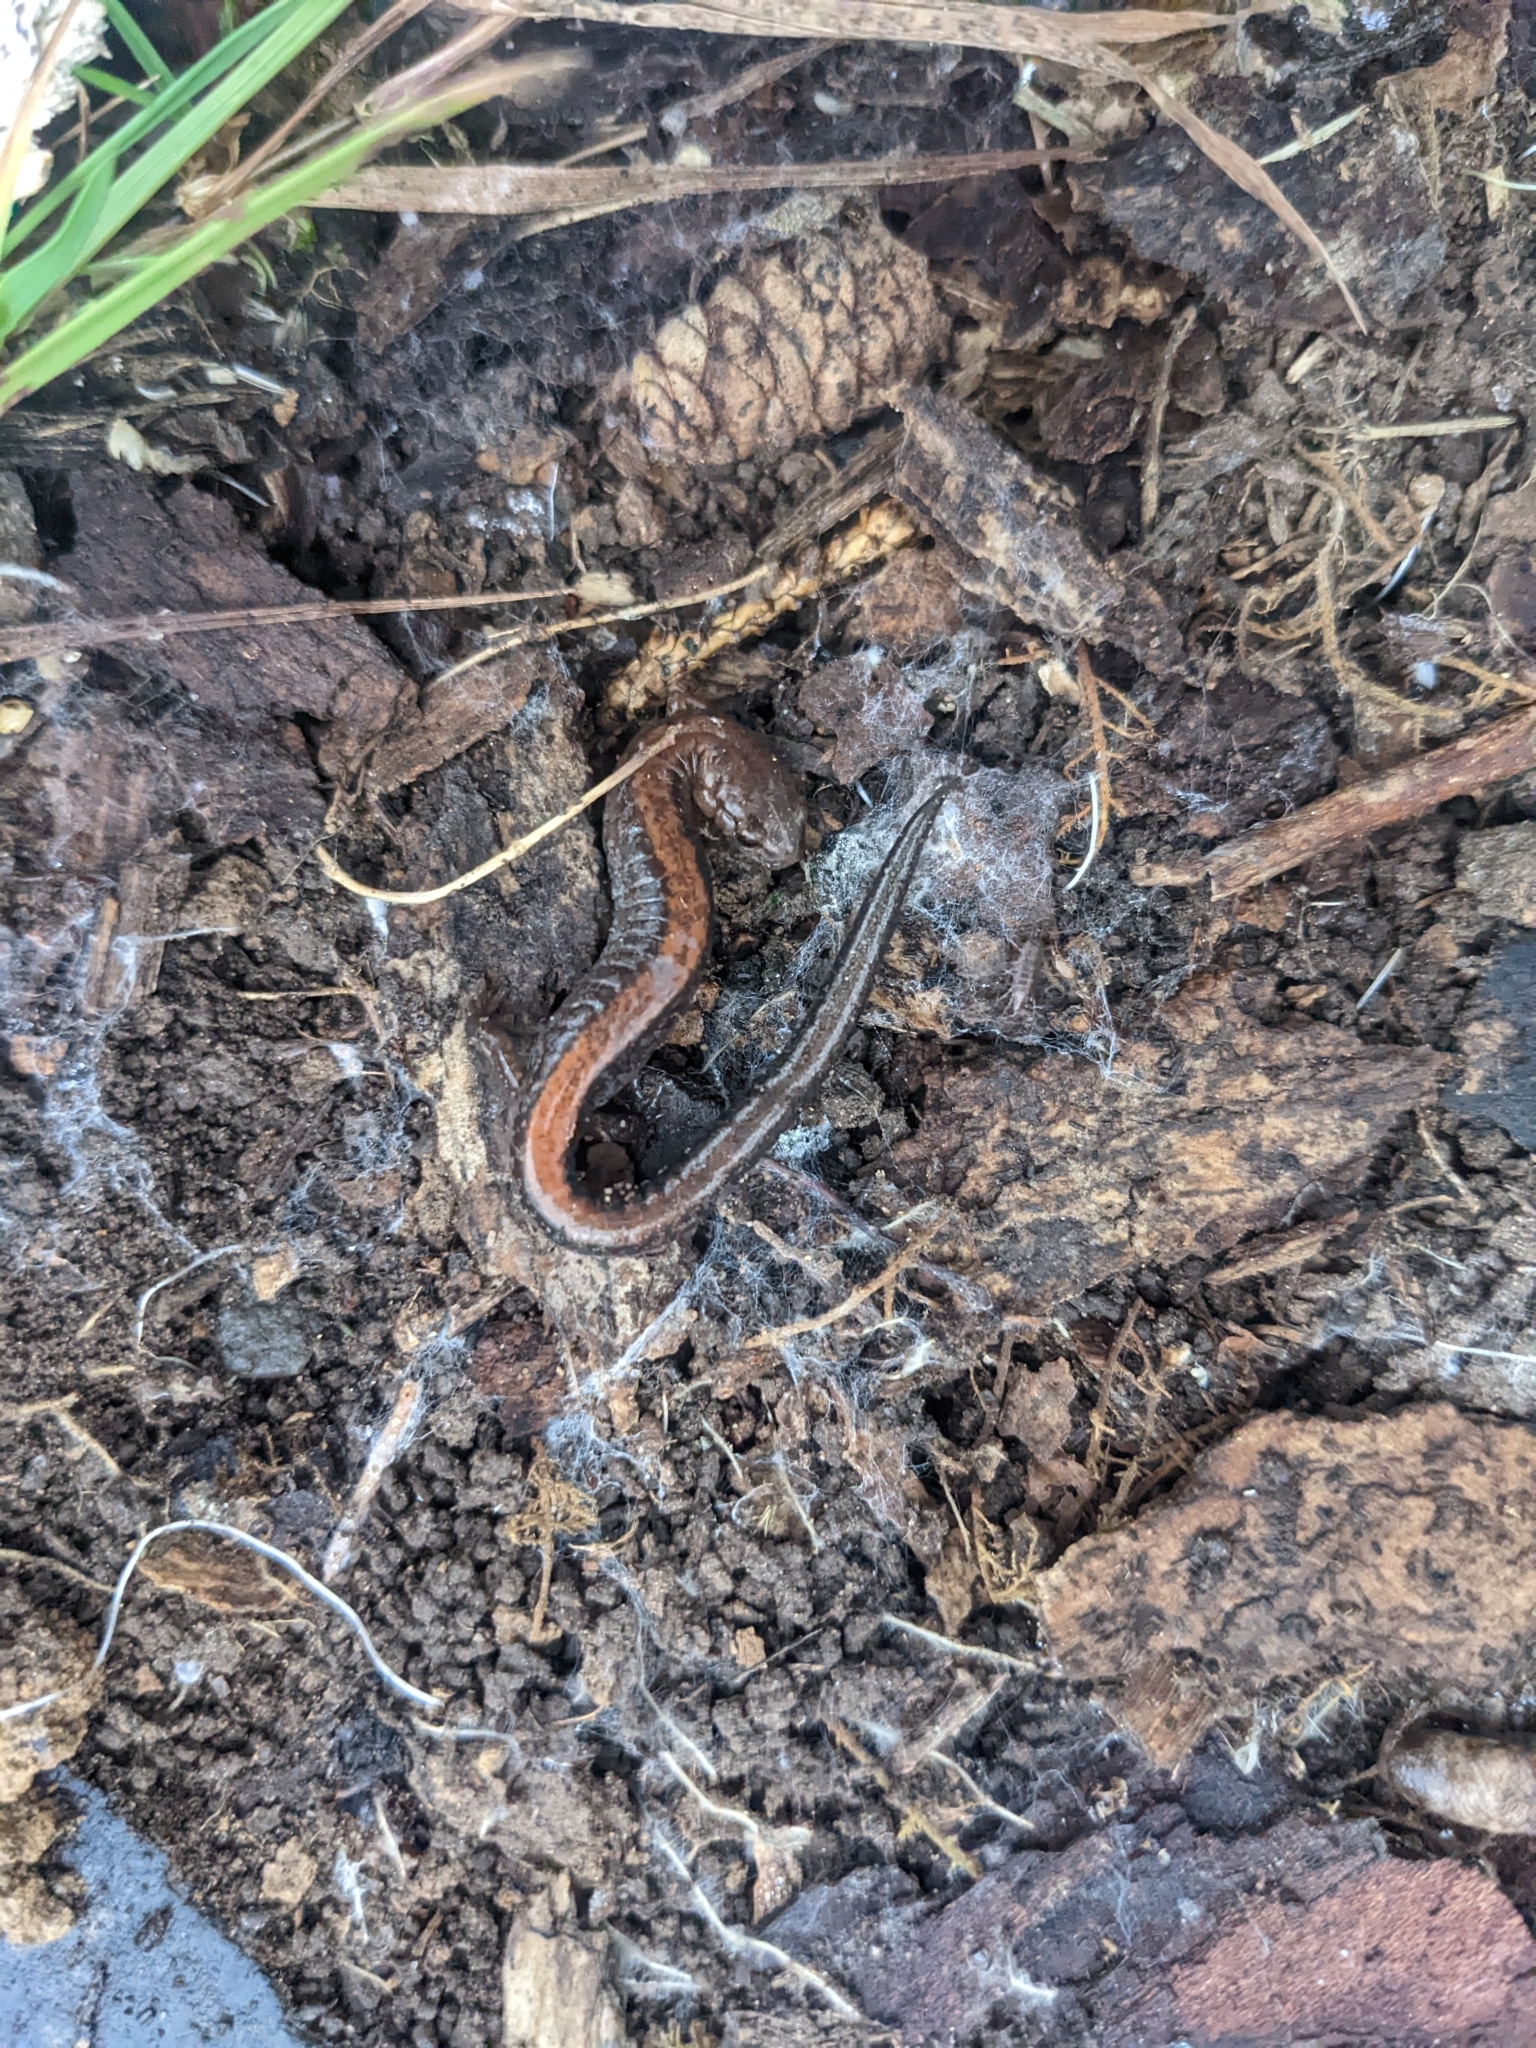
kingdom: Animalia
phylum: Chordata
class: Amphibia
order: Caudata
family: Plethodontidae
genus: Plethodon
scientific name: Plethodon cinereus
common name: Redback salamander
